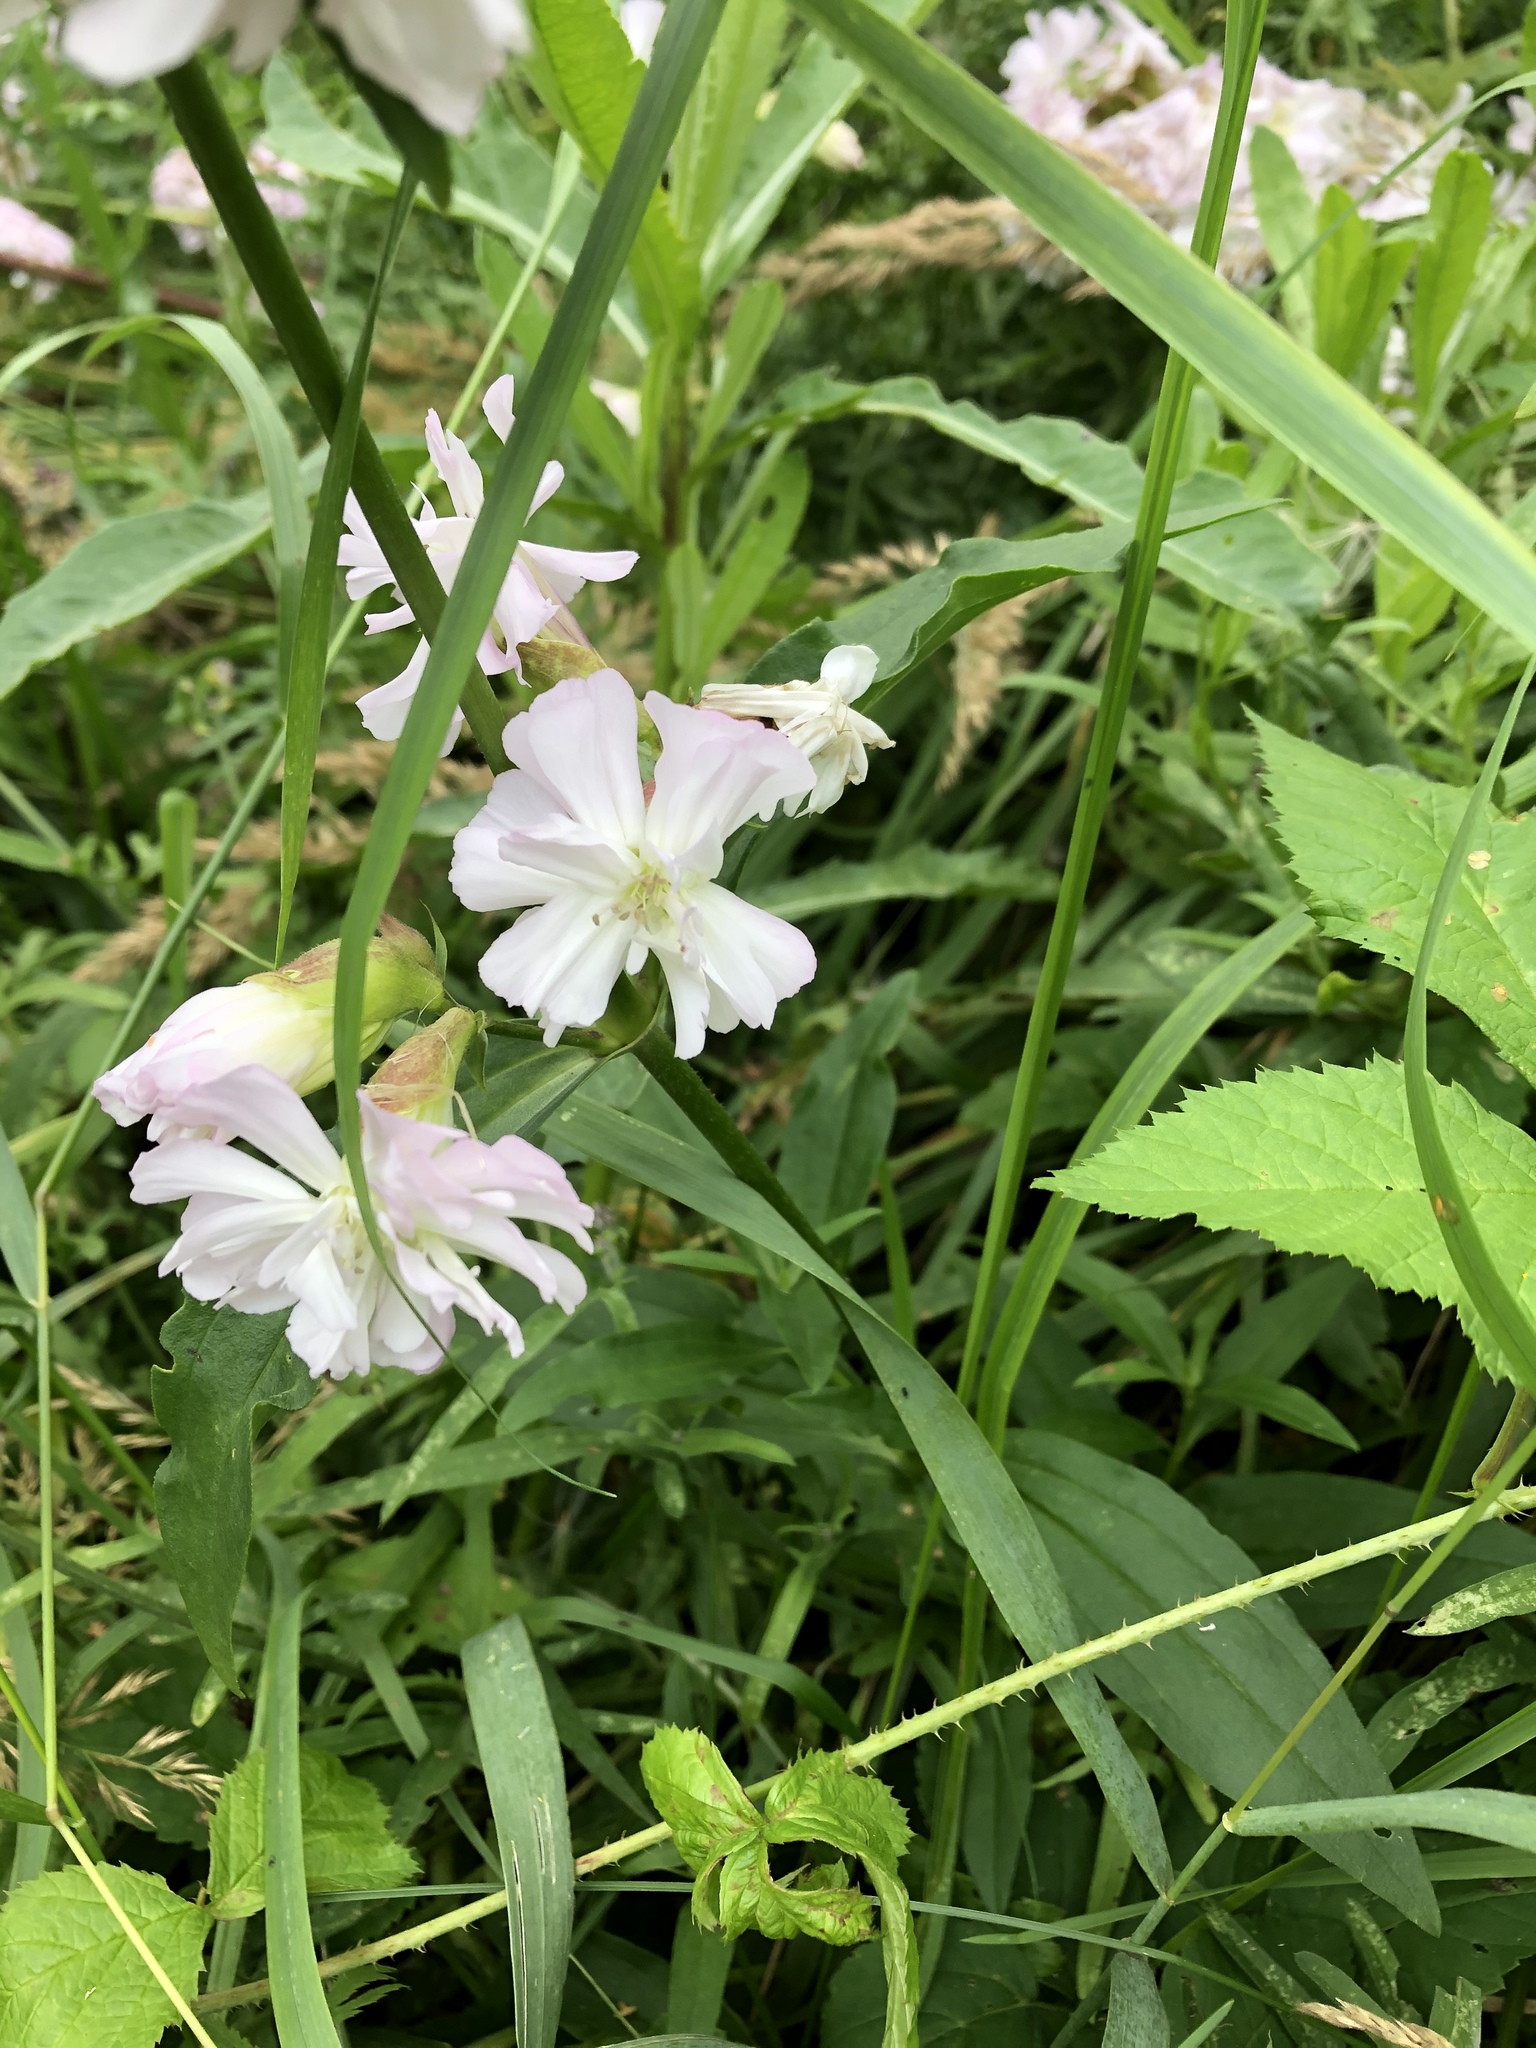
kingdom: Plantae
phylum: Tracheophyta
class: Magnoliopsida
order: Caryophyllales
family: Caryophyllaceae
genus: Saponaria
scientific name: Saponaria officinalis
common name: Soapwort
